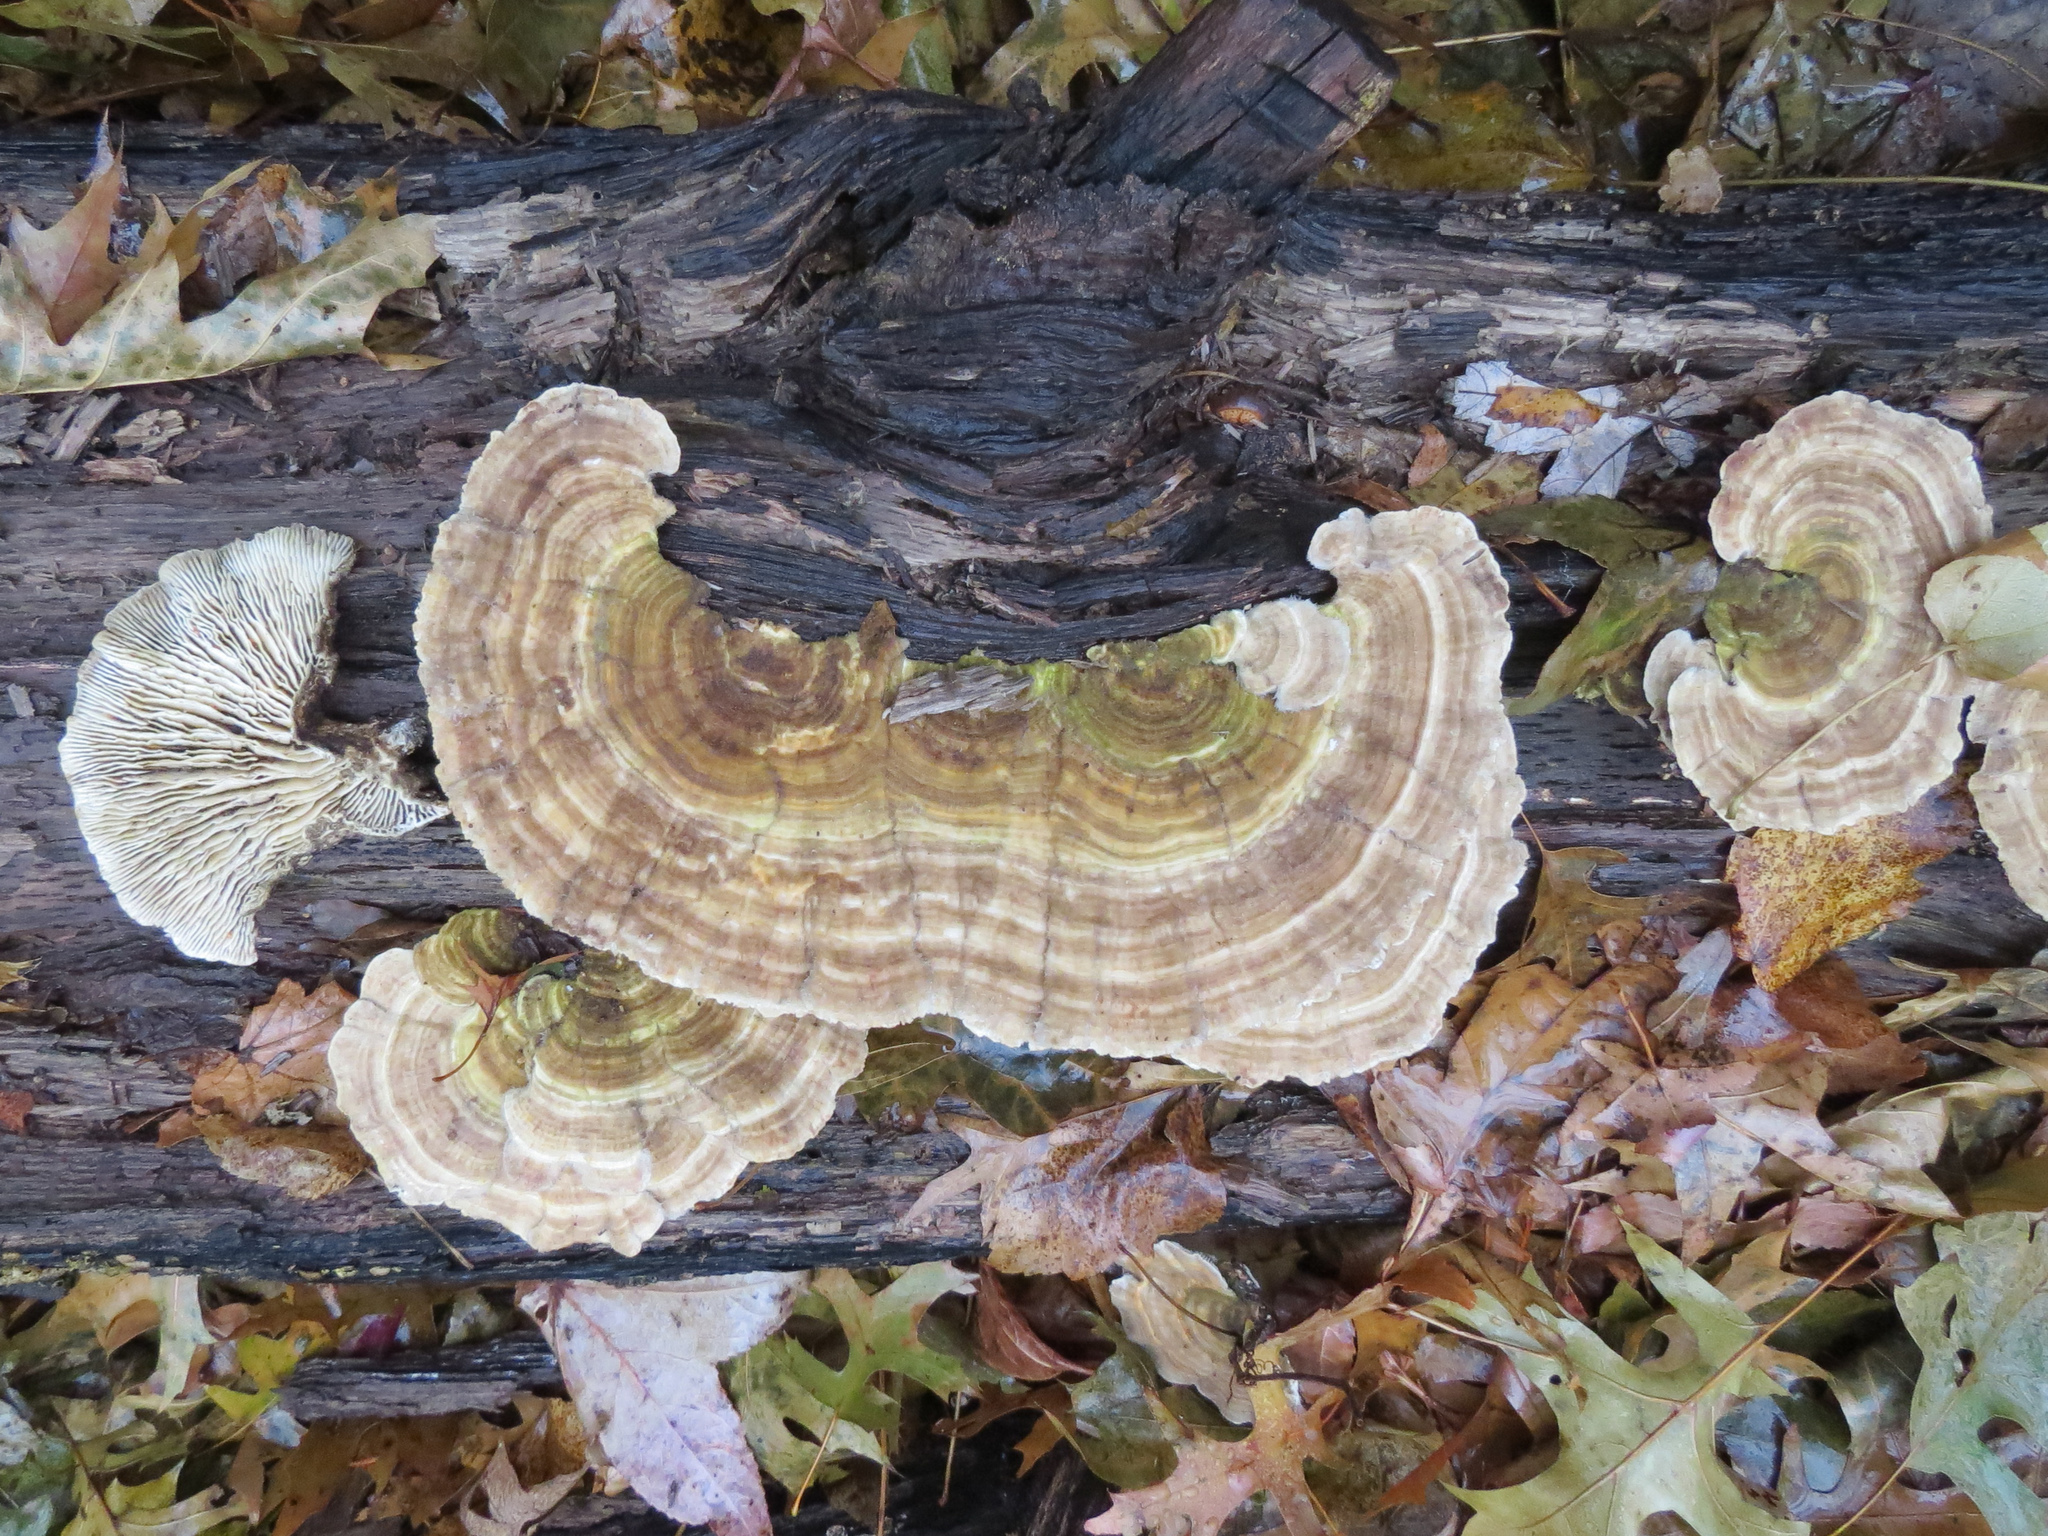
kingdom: Fungi
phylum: Basidiomycota
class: Agaricomycetes
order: Polyporales
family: Polyporaceae
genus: Lenzites
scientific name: Lenzites betulinus
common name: Birch mazegill
